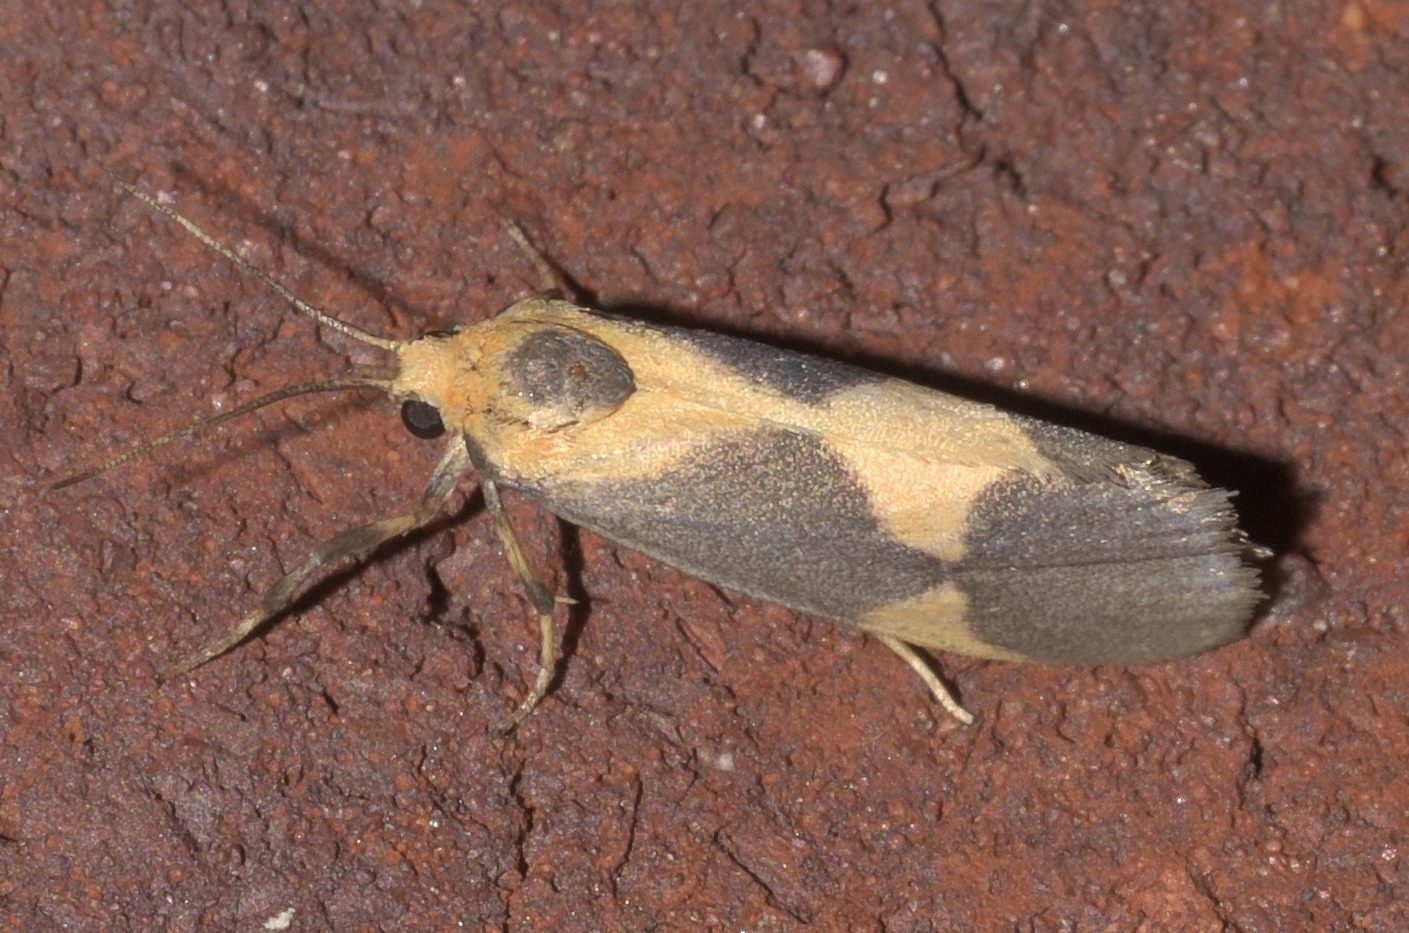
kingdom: Animalia
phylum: Arthropoda
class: Insecta
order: Lepidoptera
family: Erebidae
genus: Cisthene
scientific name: Cisthene unifascia
